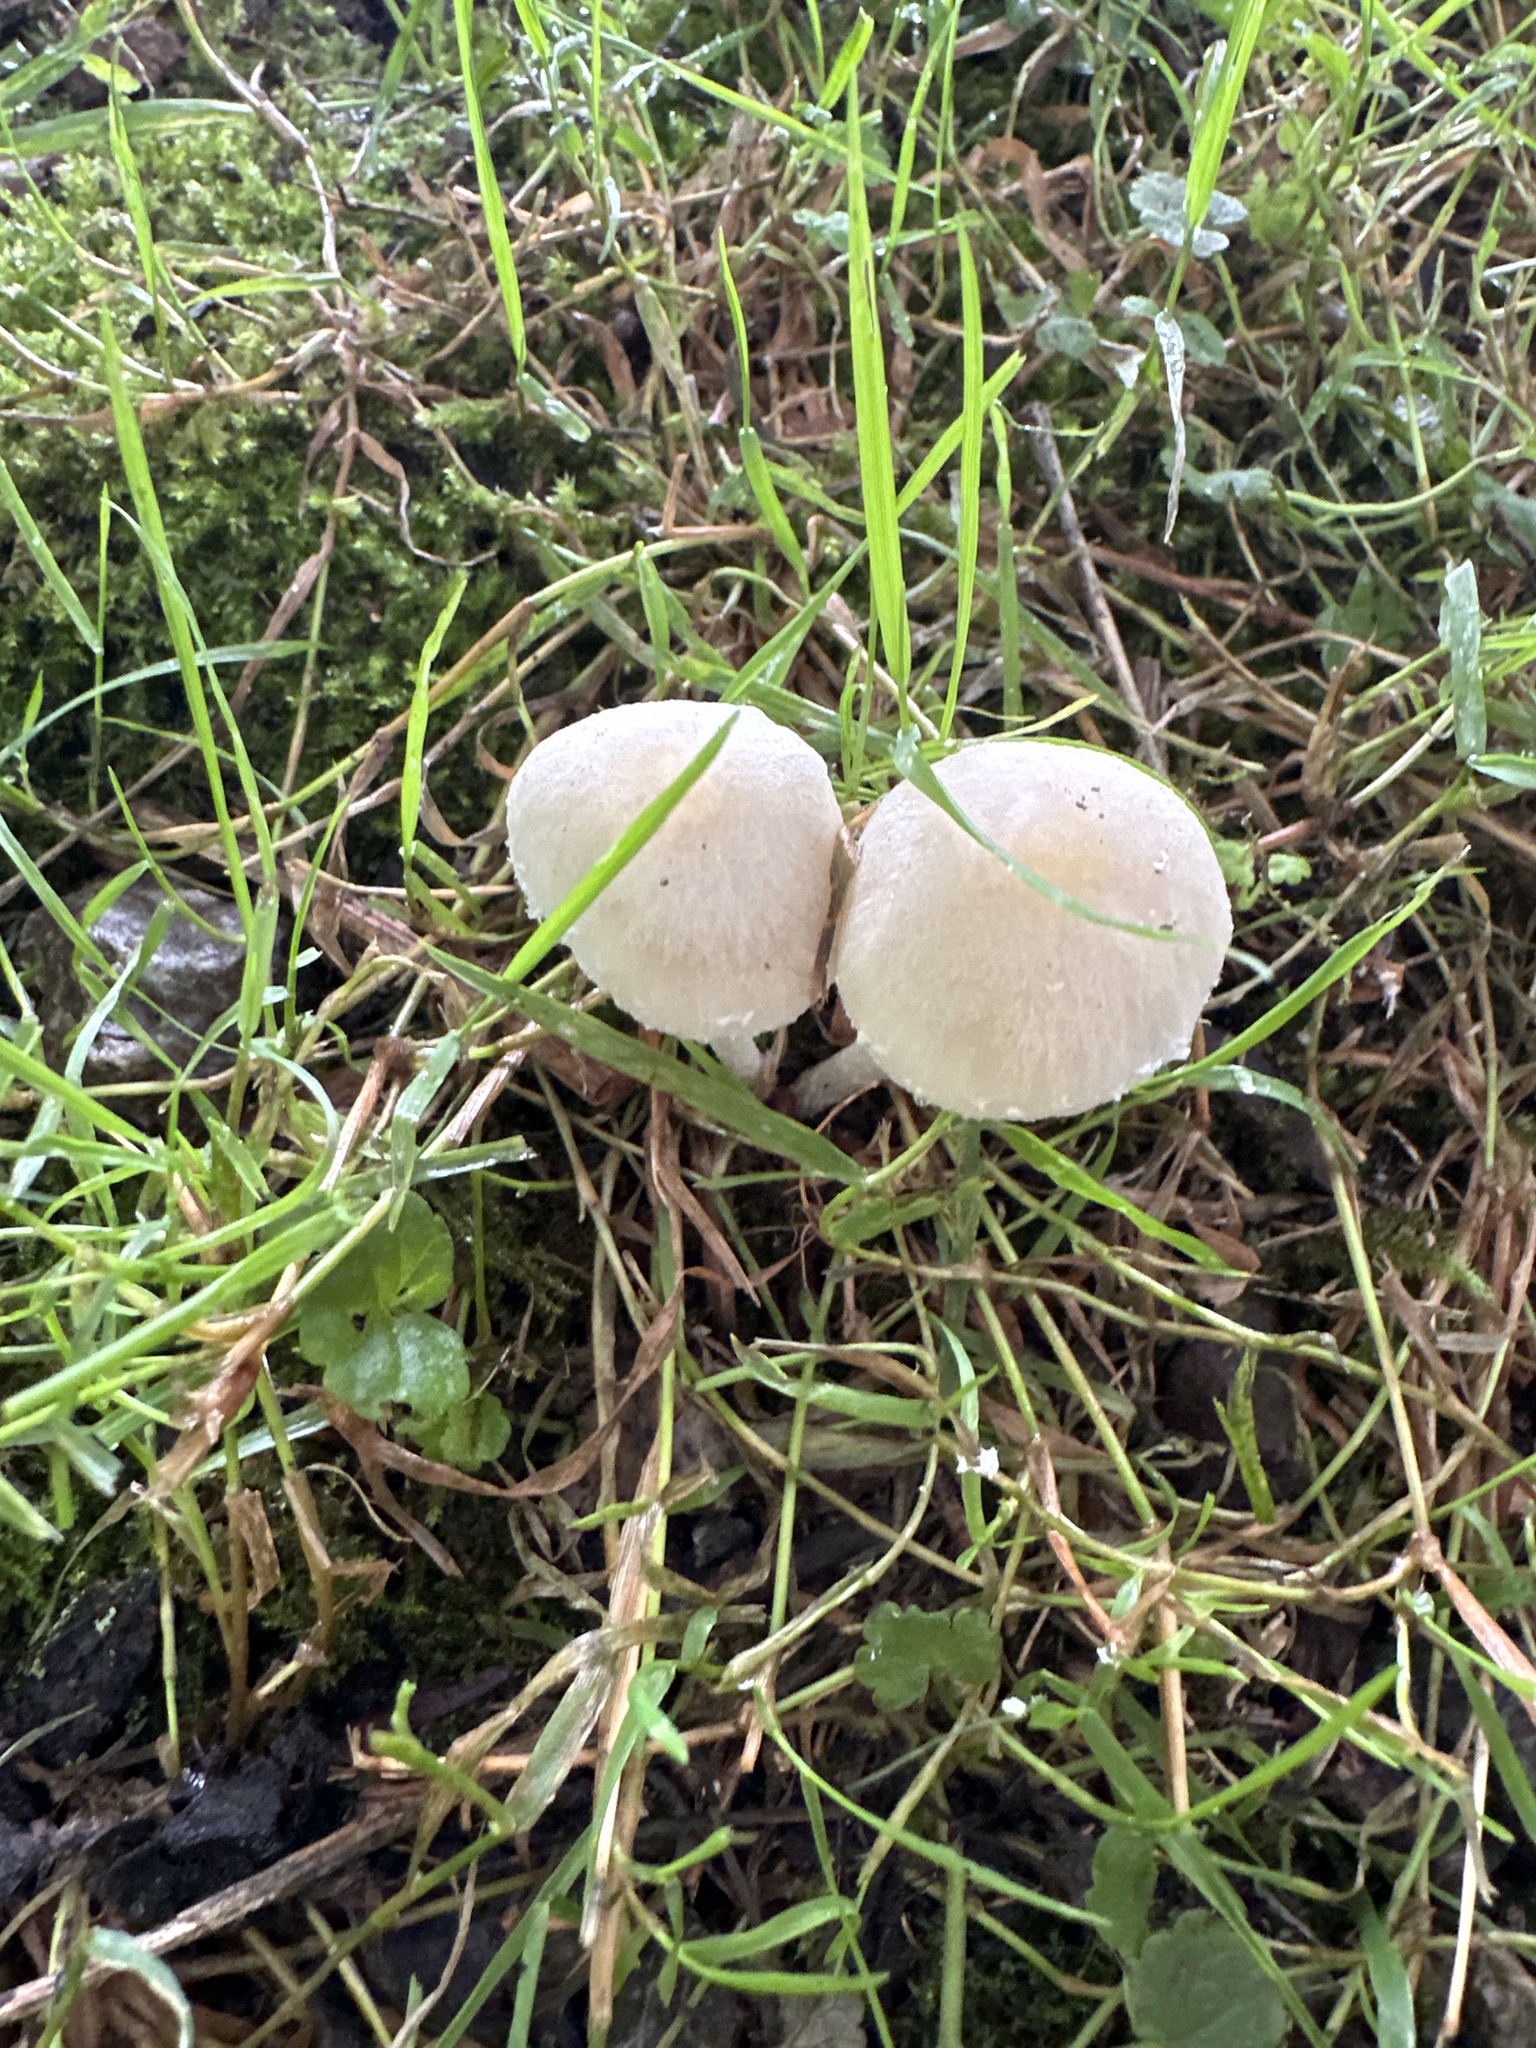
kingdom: Fungi
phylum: Basidiomycota
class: Agaricomycetes
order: Agaricales
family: Psathyrellaceae
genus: Candolleomyces
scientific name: Candolleomyces candolleanus
